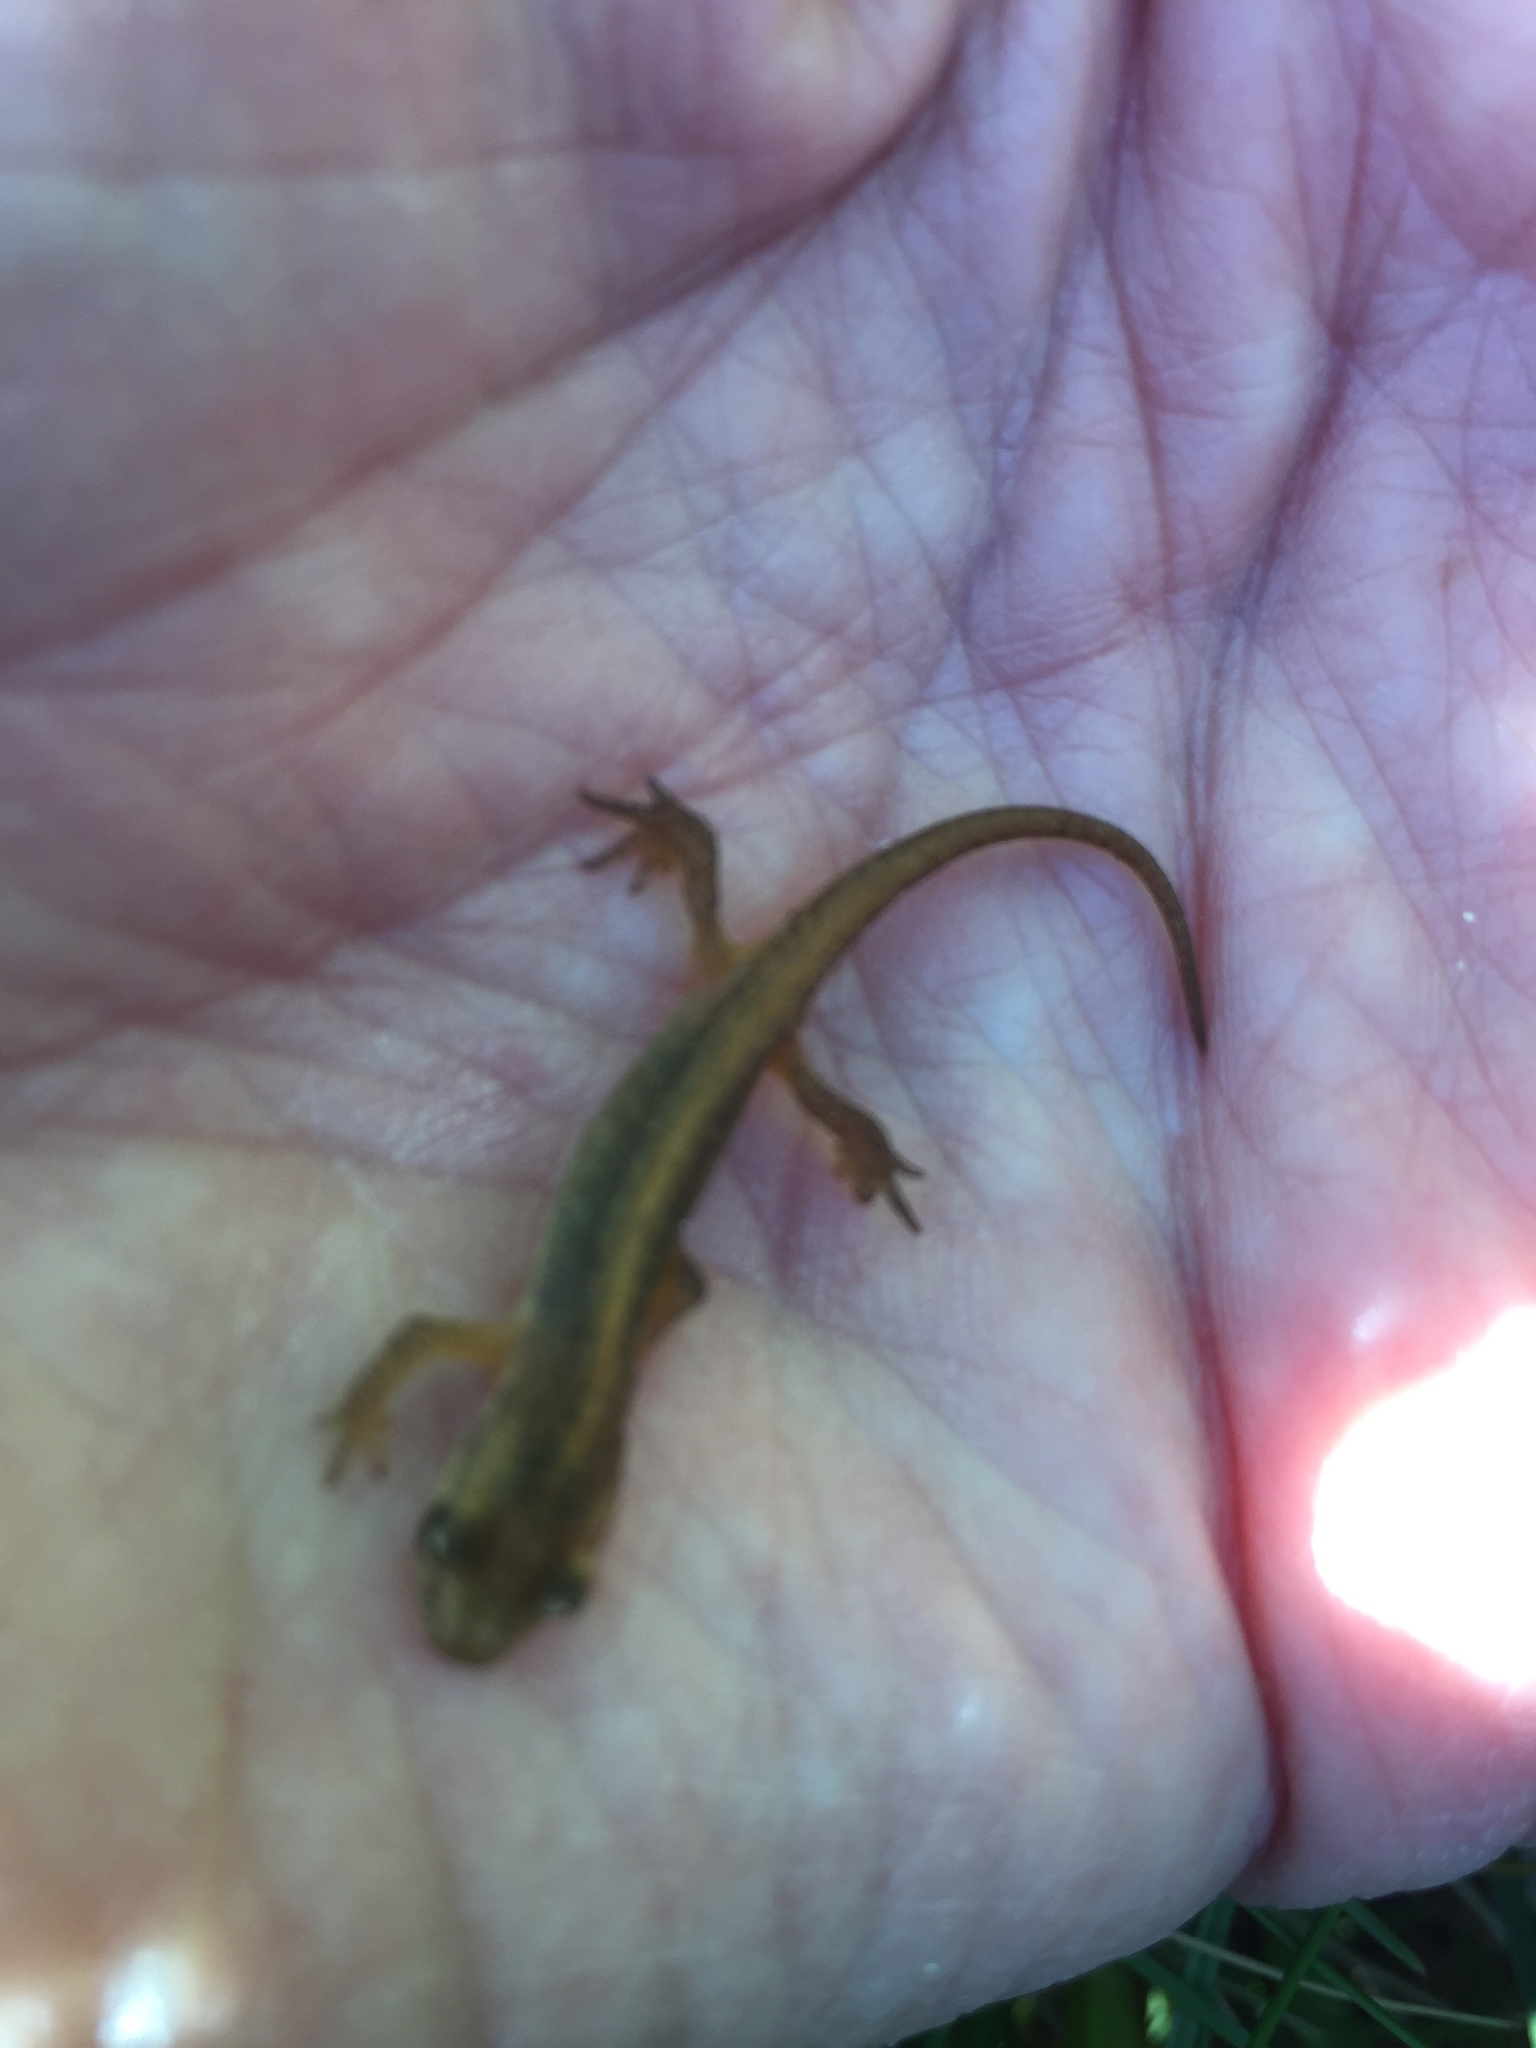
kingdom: Animalia
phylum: Chordata
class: Amphibia
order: Caudata
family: Salamandridae
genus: Lissotriton
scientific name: Lissotriton vulgaris
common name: Smooth newt
